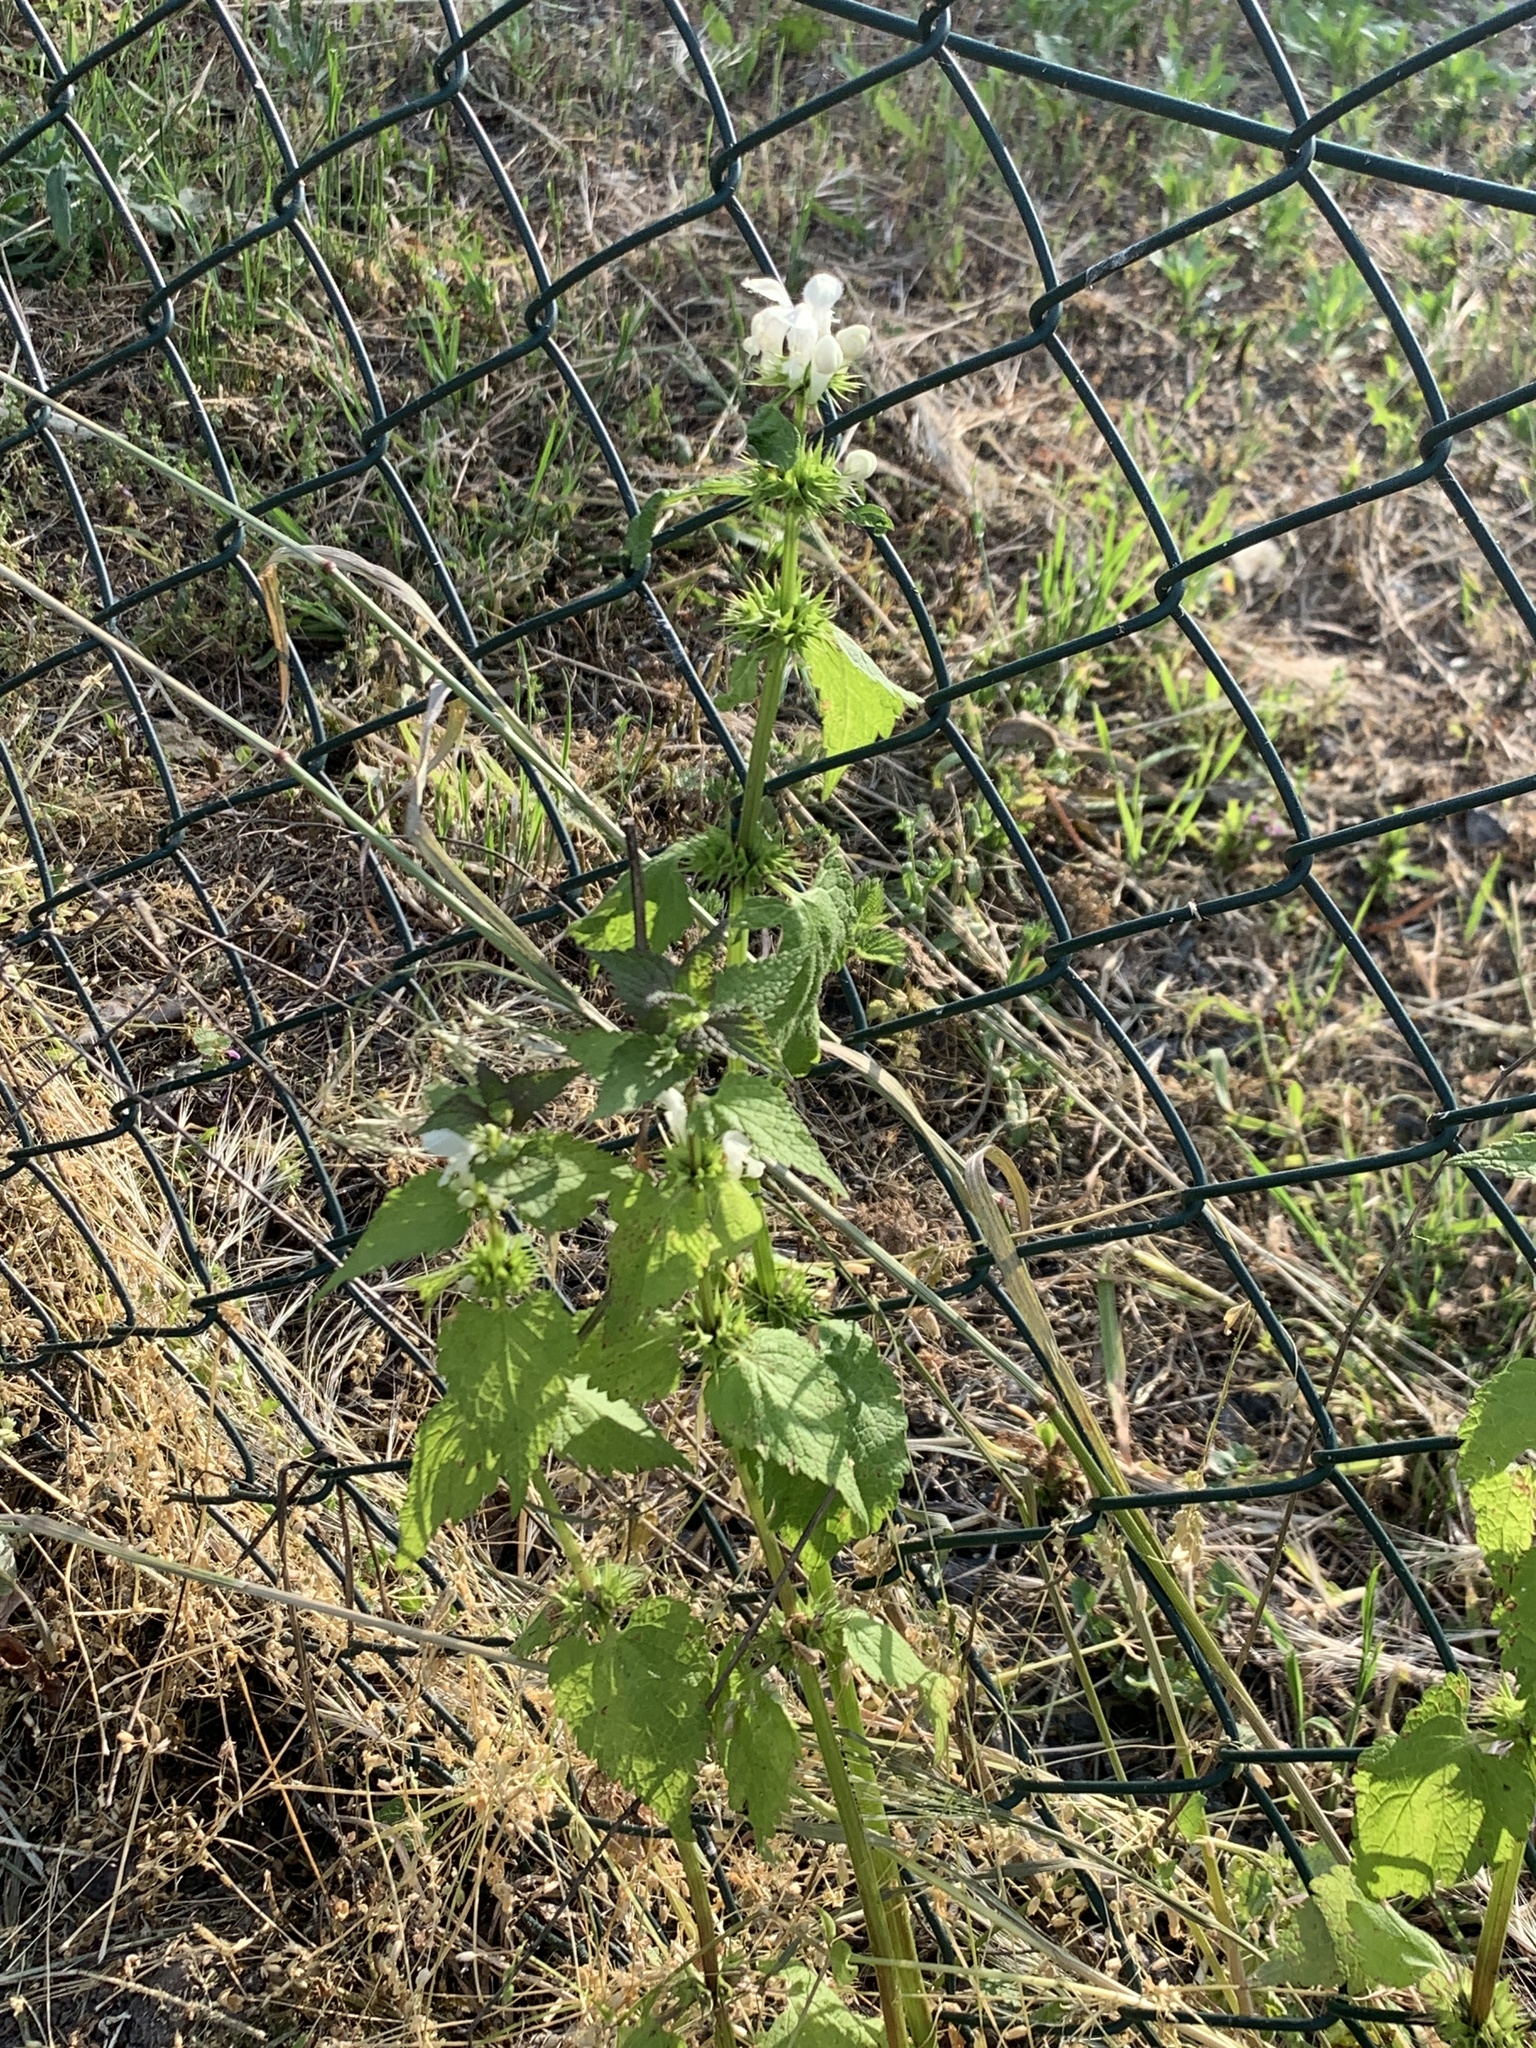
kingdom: Plantae
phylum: Tracheophyta
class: Magnoliopsida
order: Lamiales
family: Lamiaceae
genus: Lamium
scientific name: Lamium album
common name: White dead-nettle
